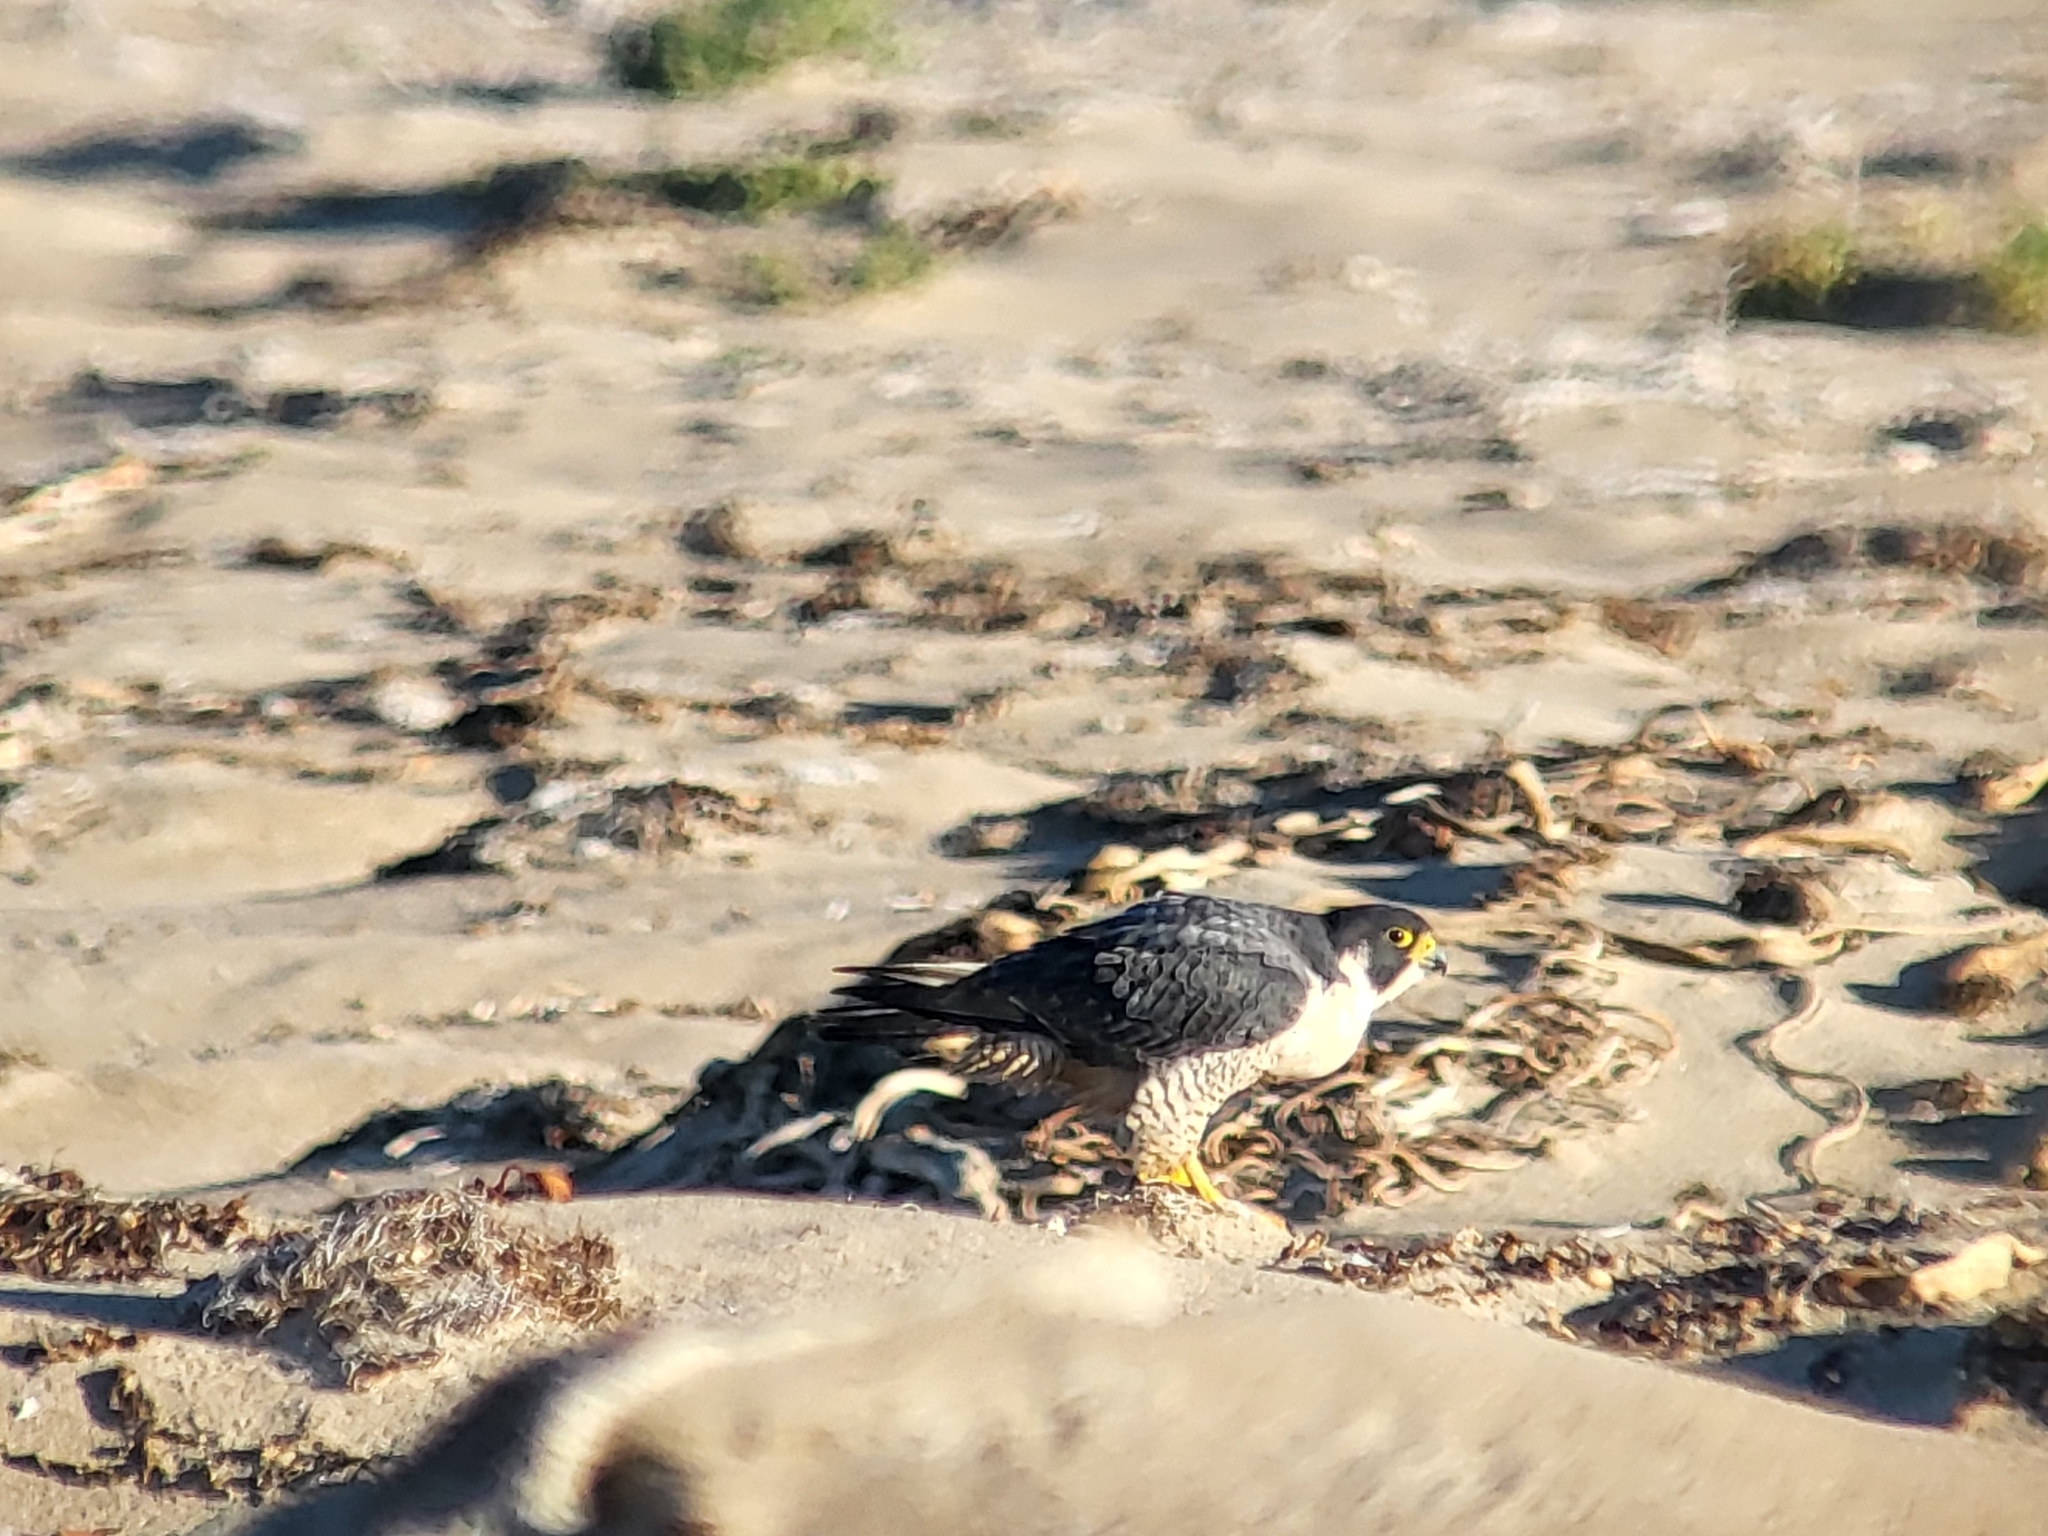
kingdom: Animalia
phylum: Chordata
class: Aves
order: Falconiformes
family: Falconidae
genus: Falco
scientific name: Falco peregrinus
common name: Peregrine falcon
